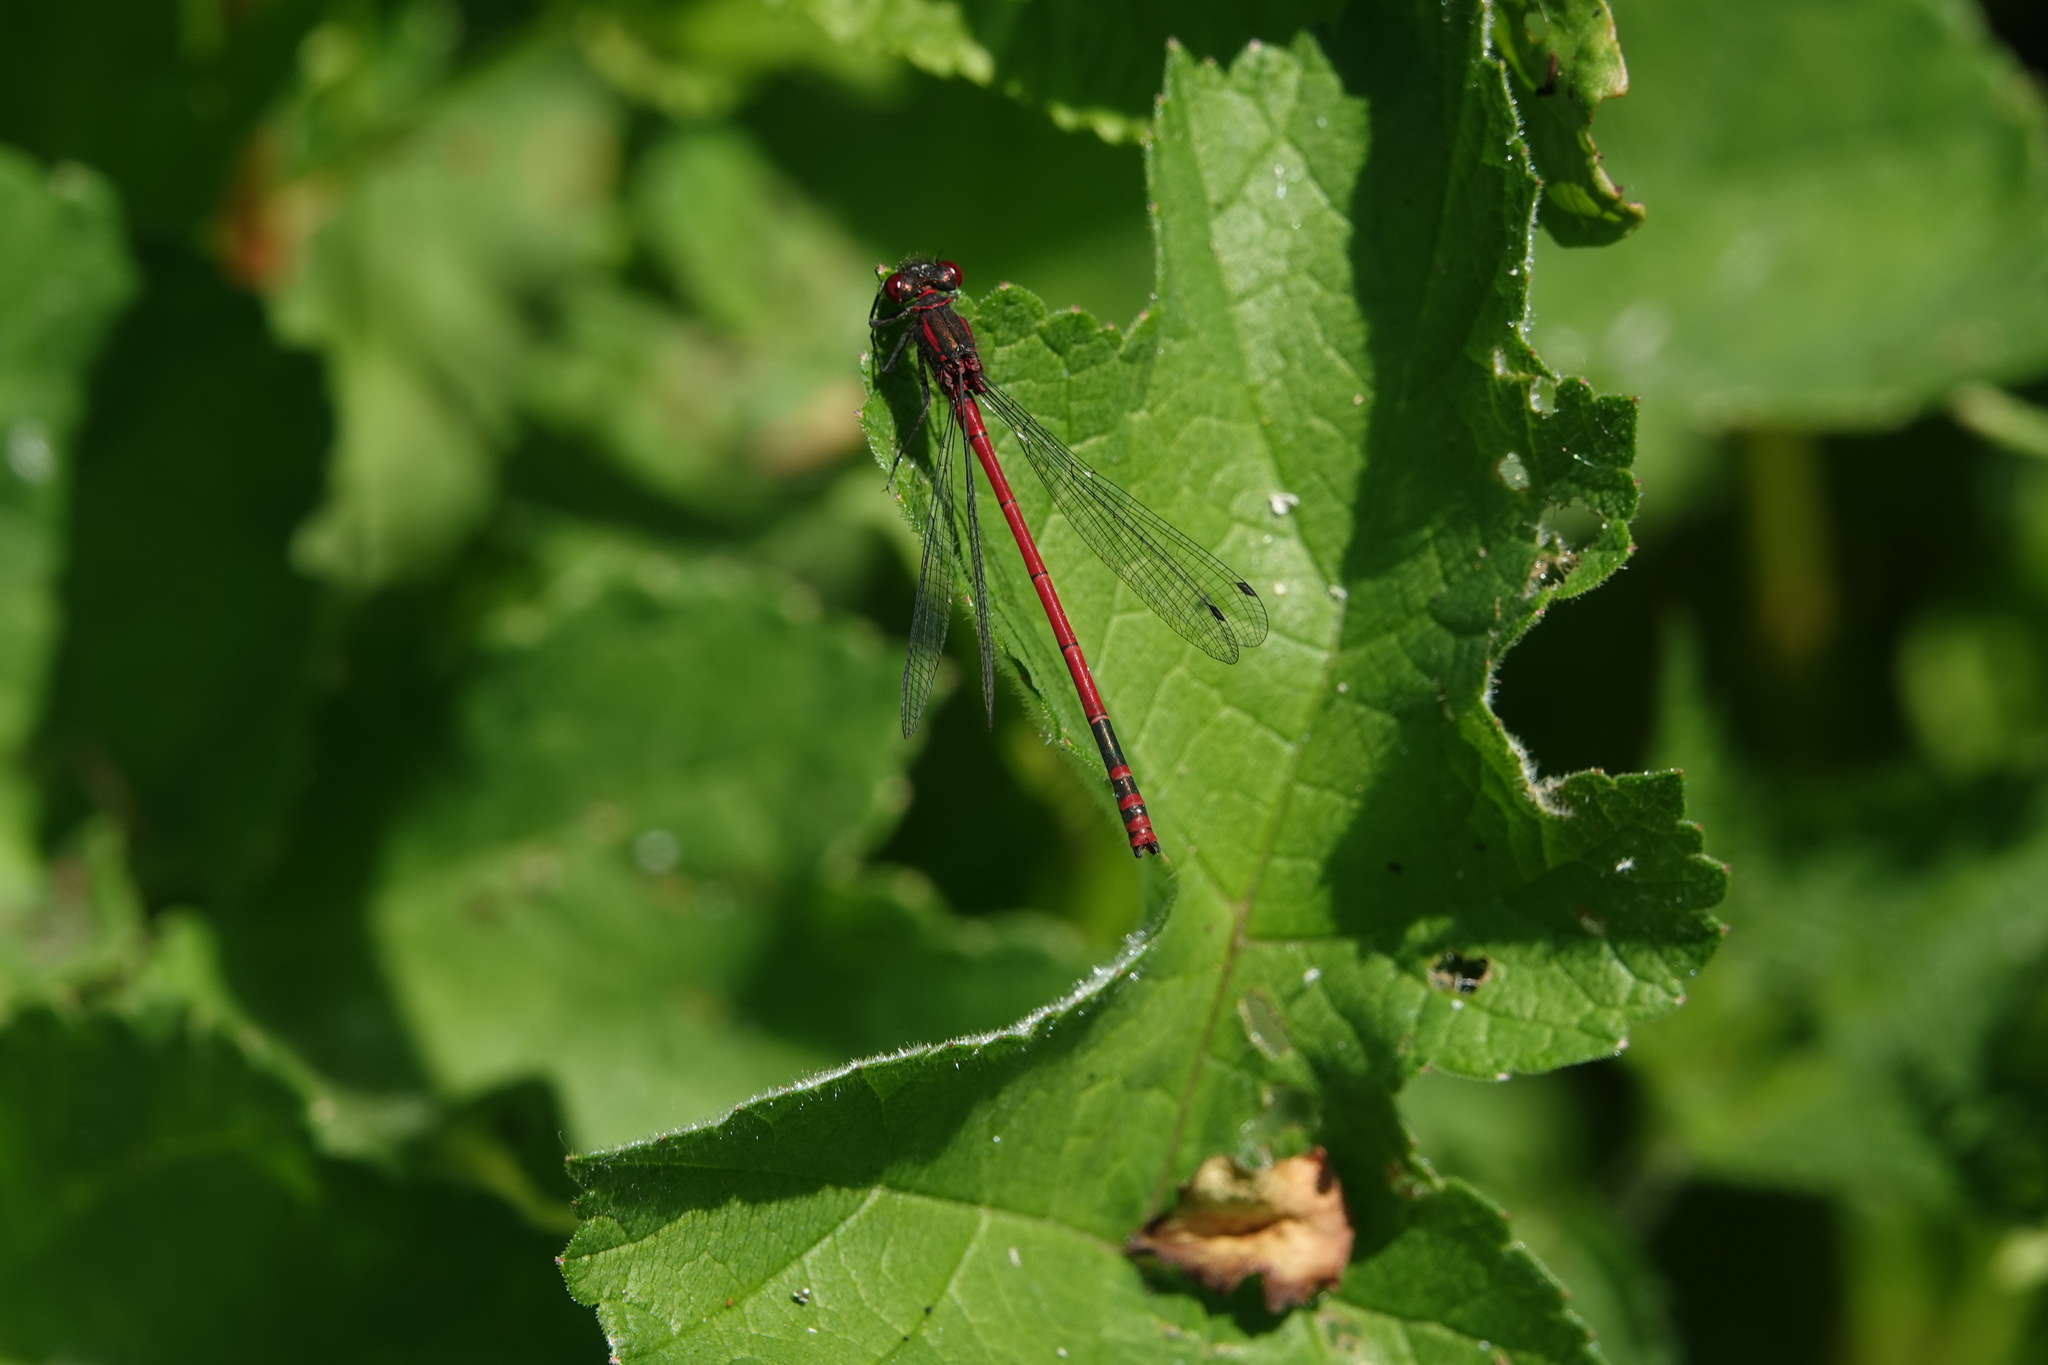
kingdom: Animalia
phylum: Arthropoda
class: Insecta
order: Odonata
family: Coenagrionidae
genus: Pyrrhosoma
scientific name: Pyrrhosoma nymphula
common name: Large red damsel
